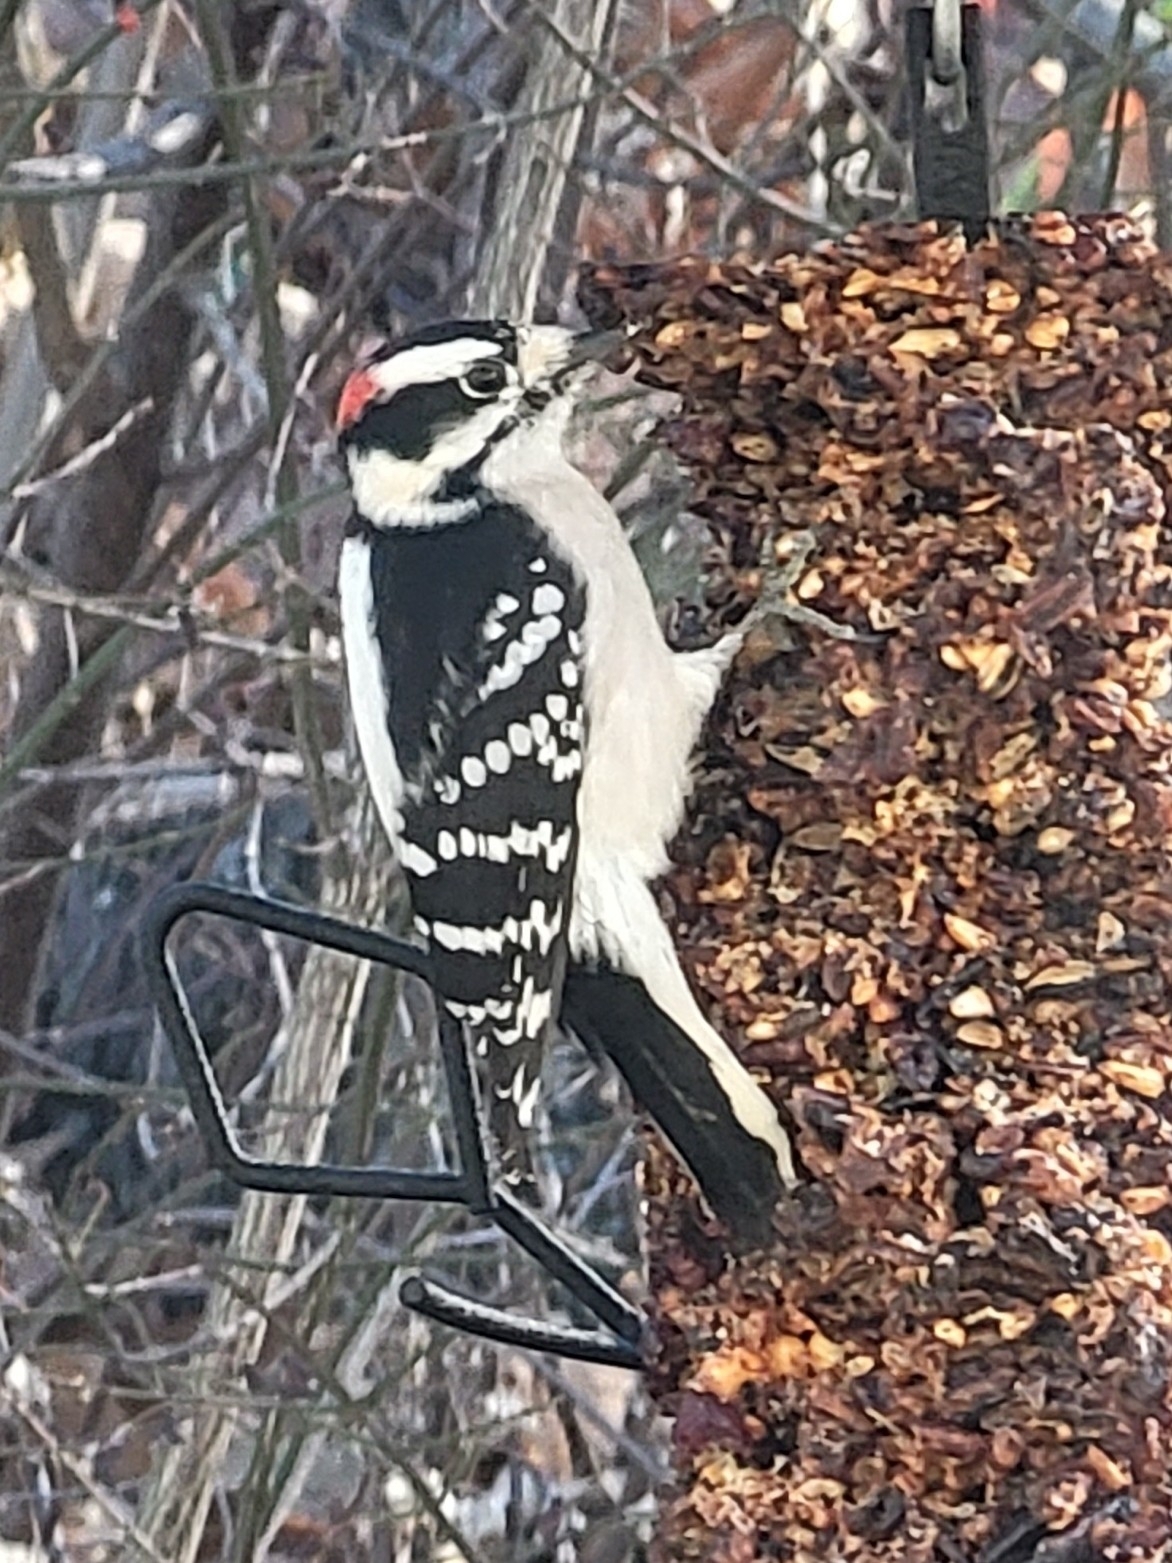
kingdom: Animalia
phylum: Chordata
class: Aves
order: Piciformes
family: Picidae
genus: Dryobates
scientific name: Dryobates pubescens
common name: Downy woodpecker
